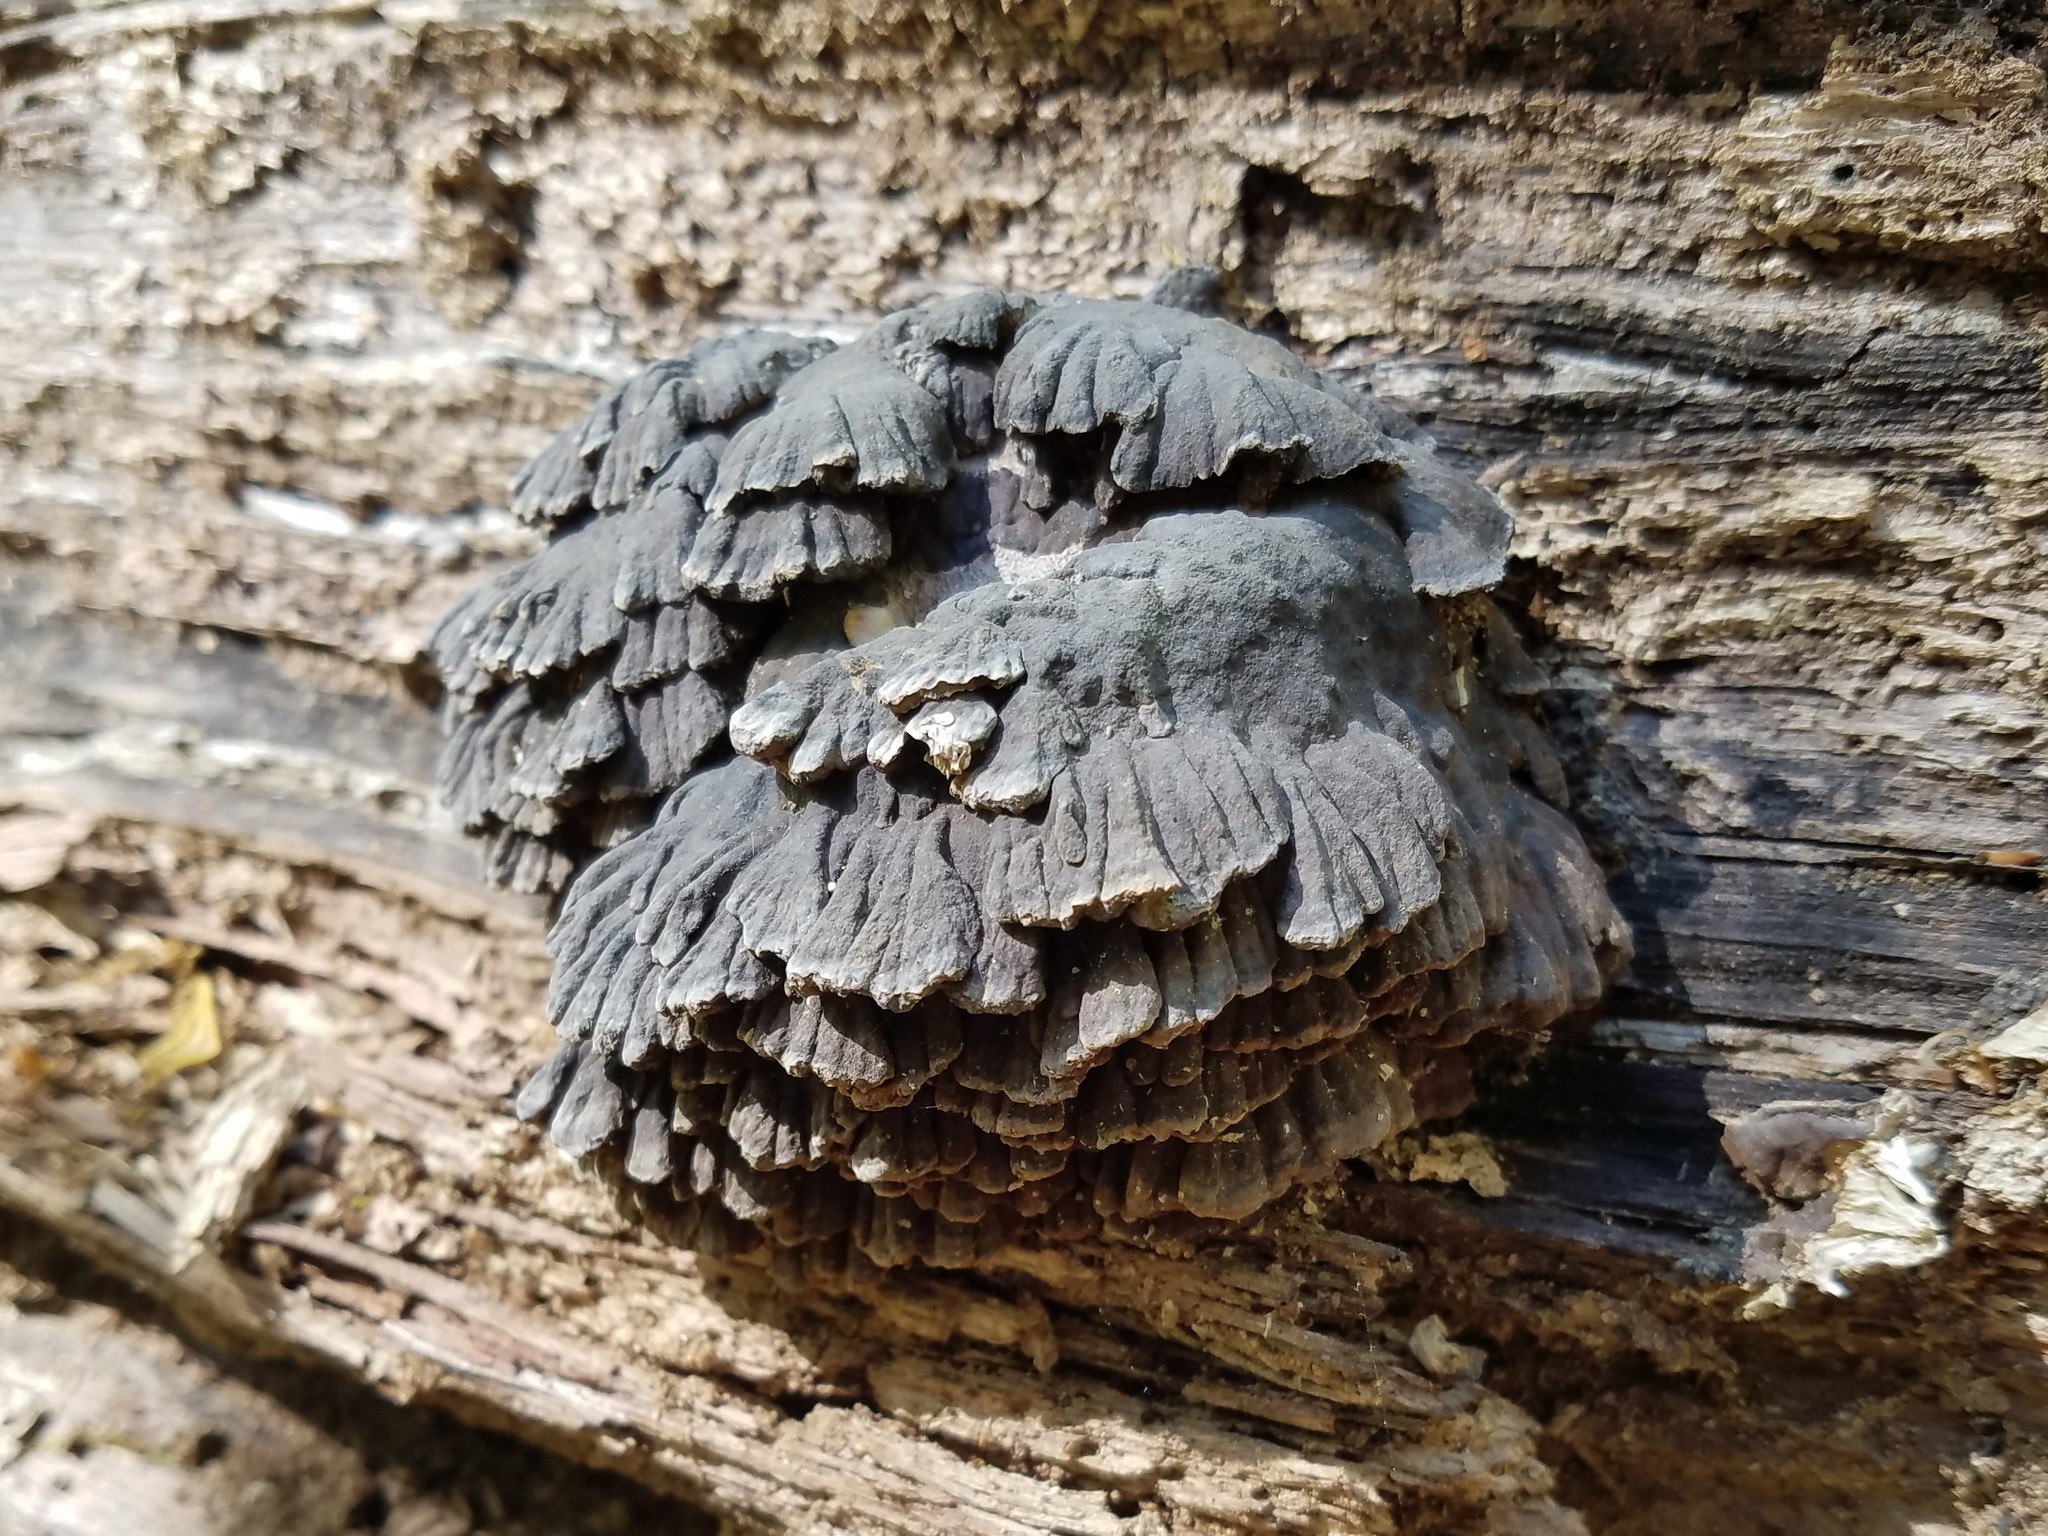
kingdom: Fungi
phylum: Basidiomycota
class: Agaricomycetes
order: Polyporales
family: Polyporaceae
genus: Globifomes
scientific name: Globifomes graveolens
